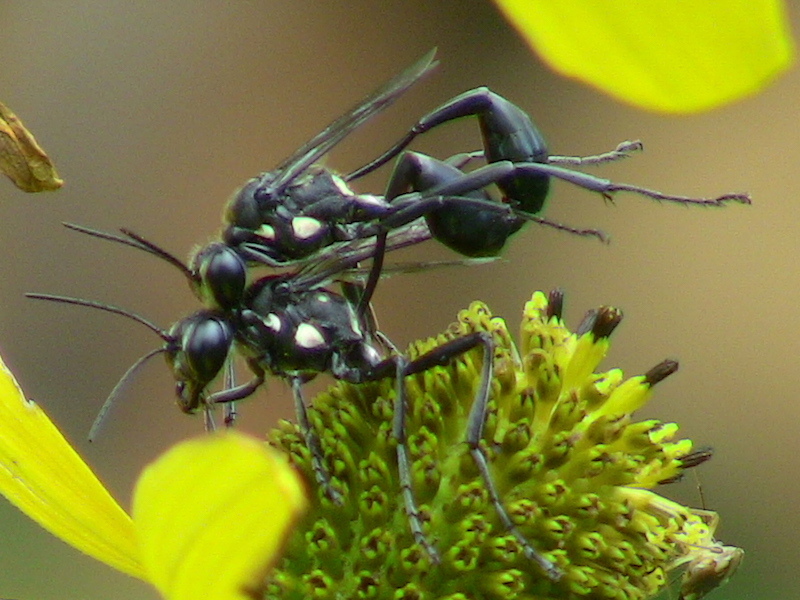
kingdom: Animalia
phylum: Arthropoda
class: Insecta
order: Hymenoptera
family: Sphecidae
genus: Eremnophila
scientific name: Eremnophila aureonotata
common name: Gold-marked thread-waisted wasp
